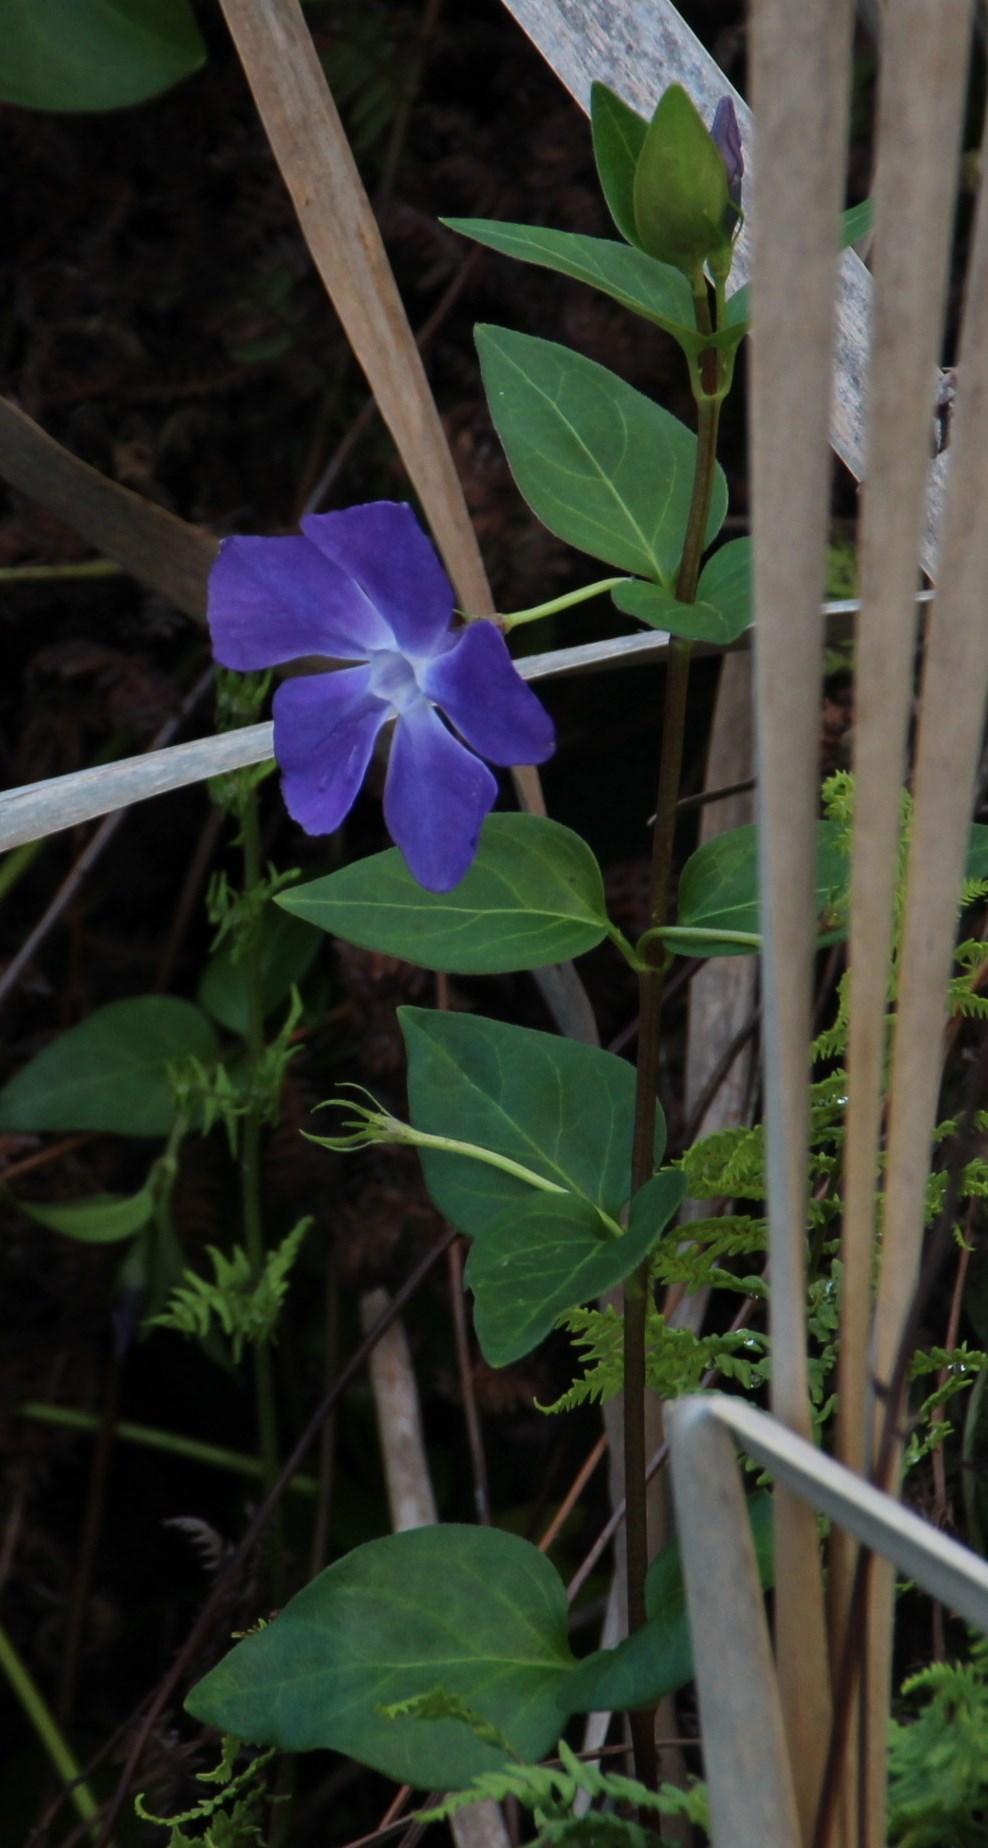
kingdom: Plantae
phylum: Tracheophyta
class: Magnoliopsida
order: Gentianales
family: Apocynaceae
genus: Vinca
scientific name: Vinca major
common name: Greater periwinkle
